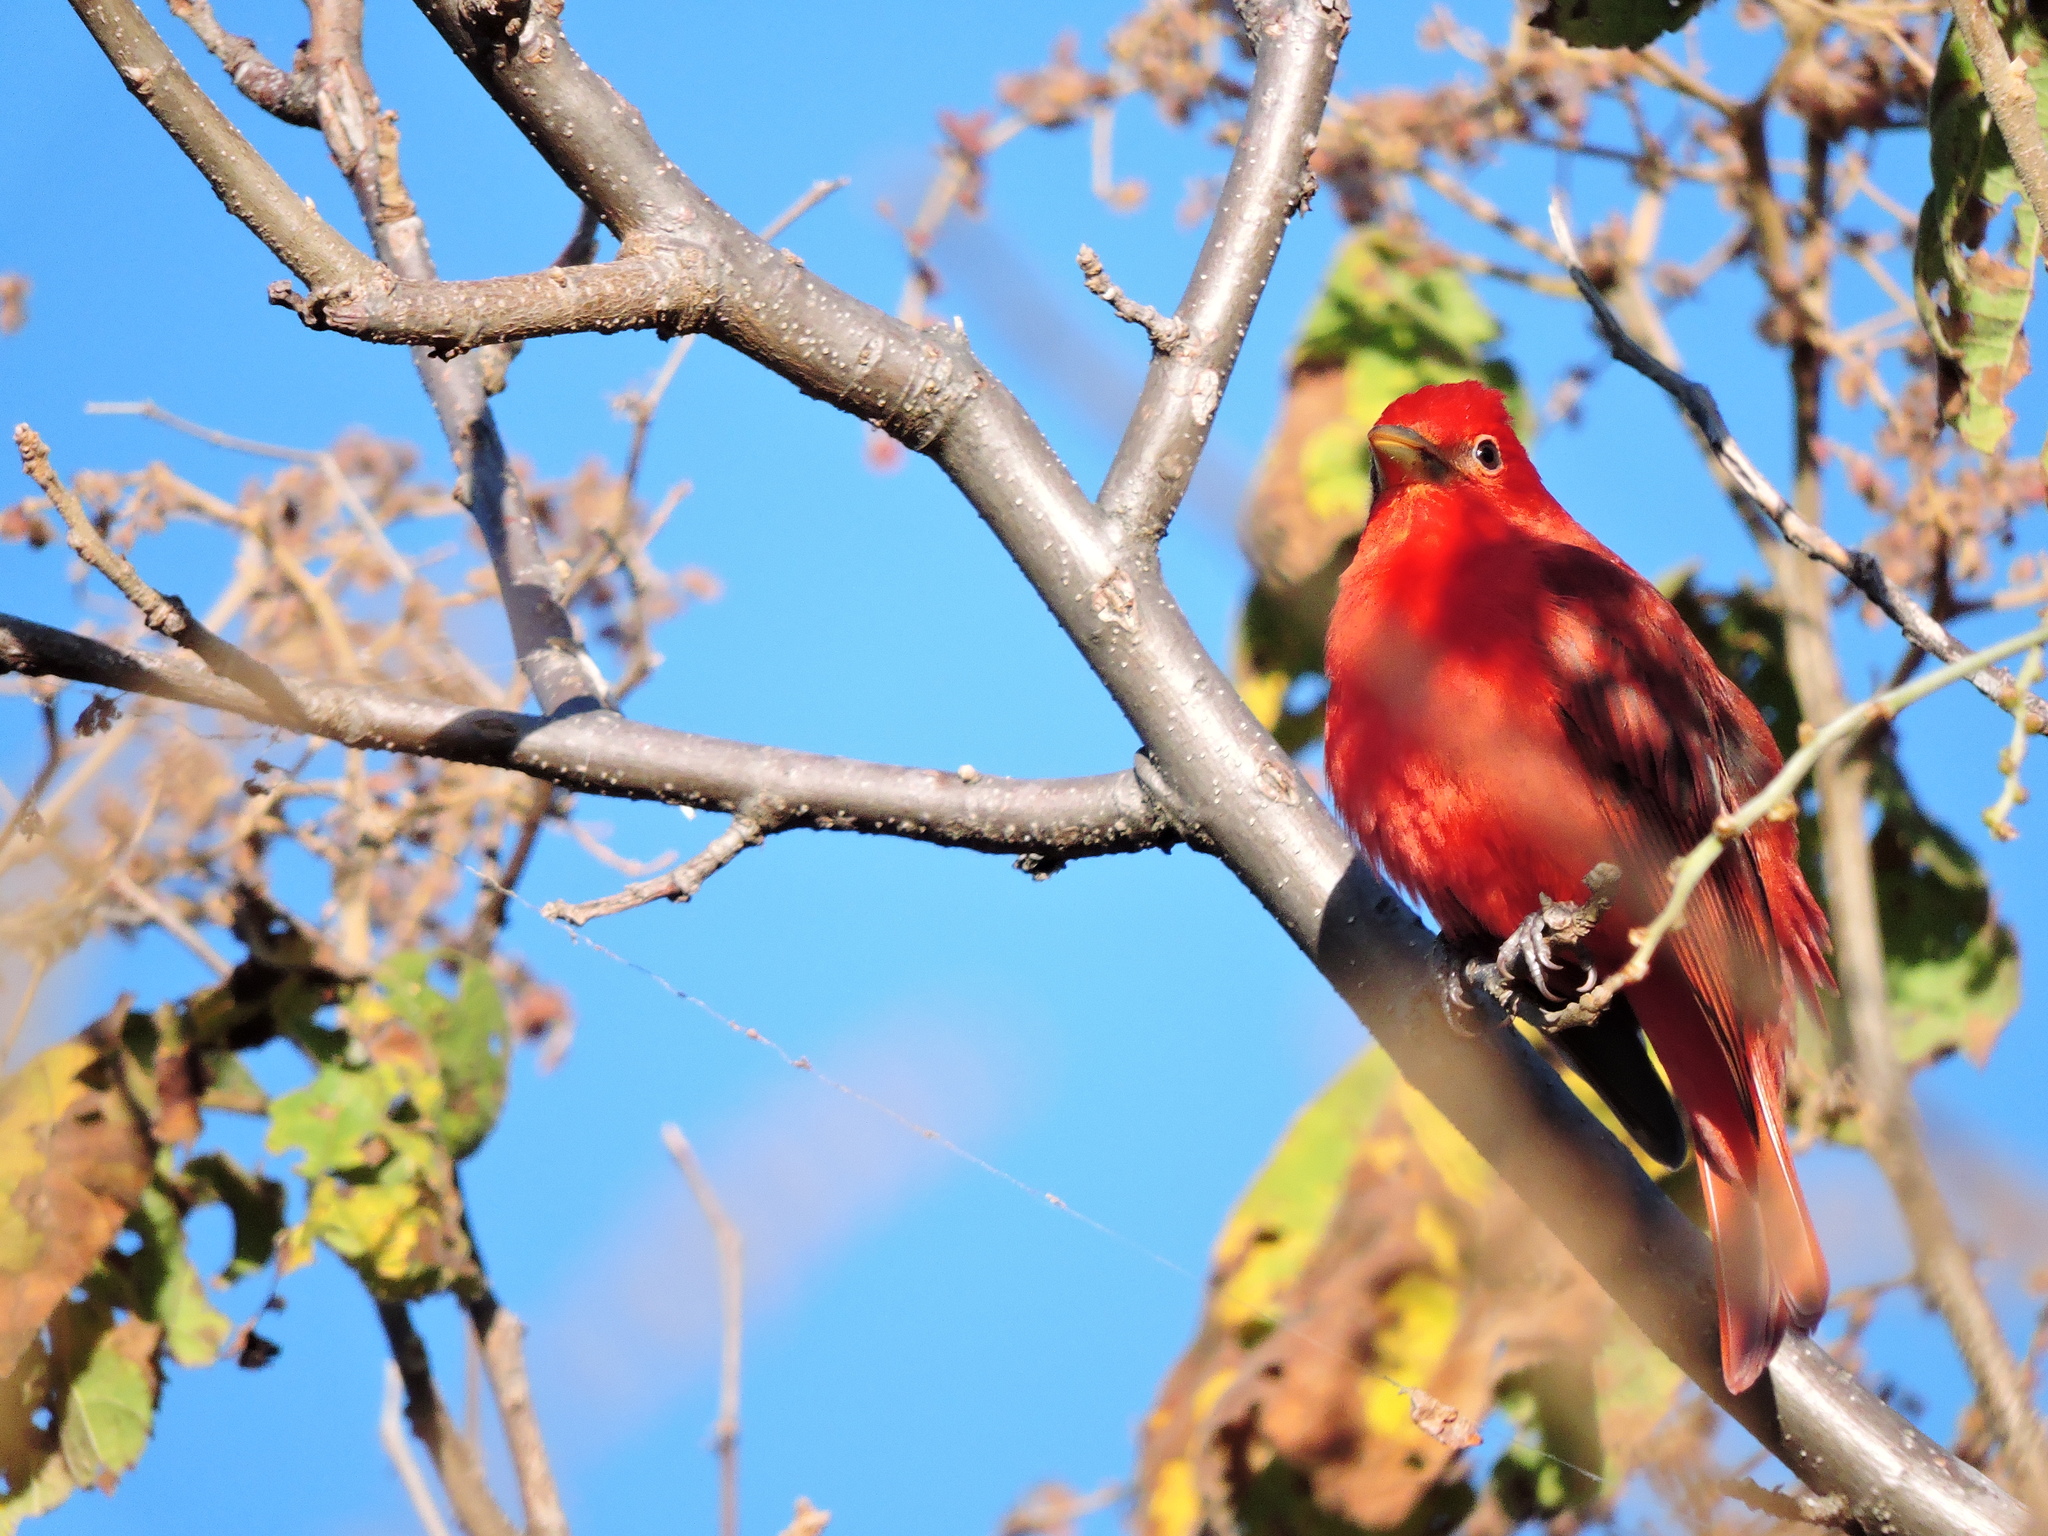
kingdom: Animalia
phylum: Chordata
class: Aves
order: Passeriformes
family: Cardinalidae
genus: Piranga
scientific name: Piranga rubra
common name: Summer tanager
